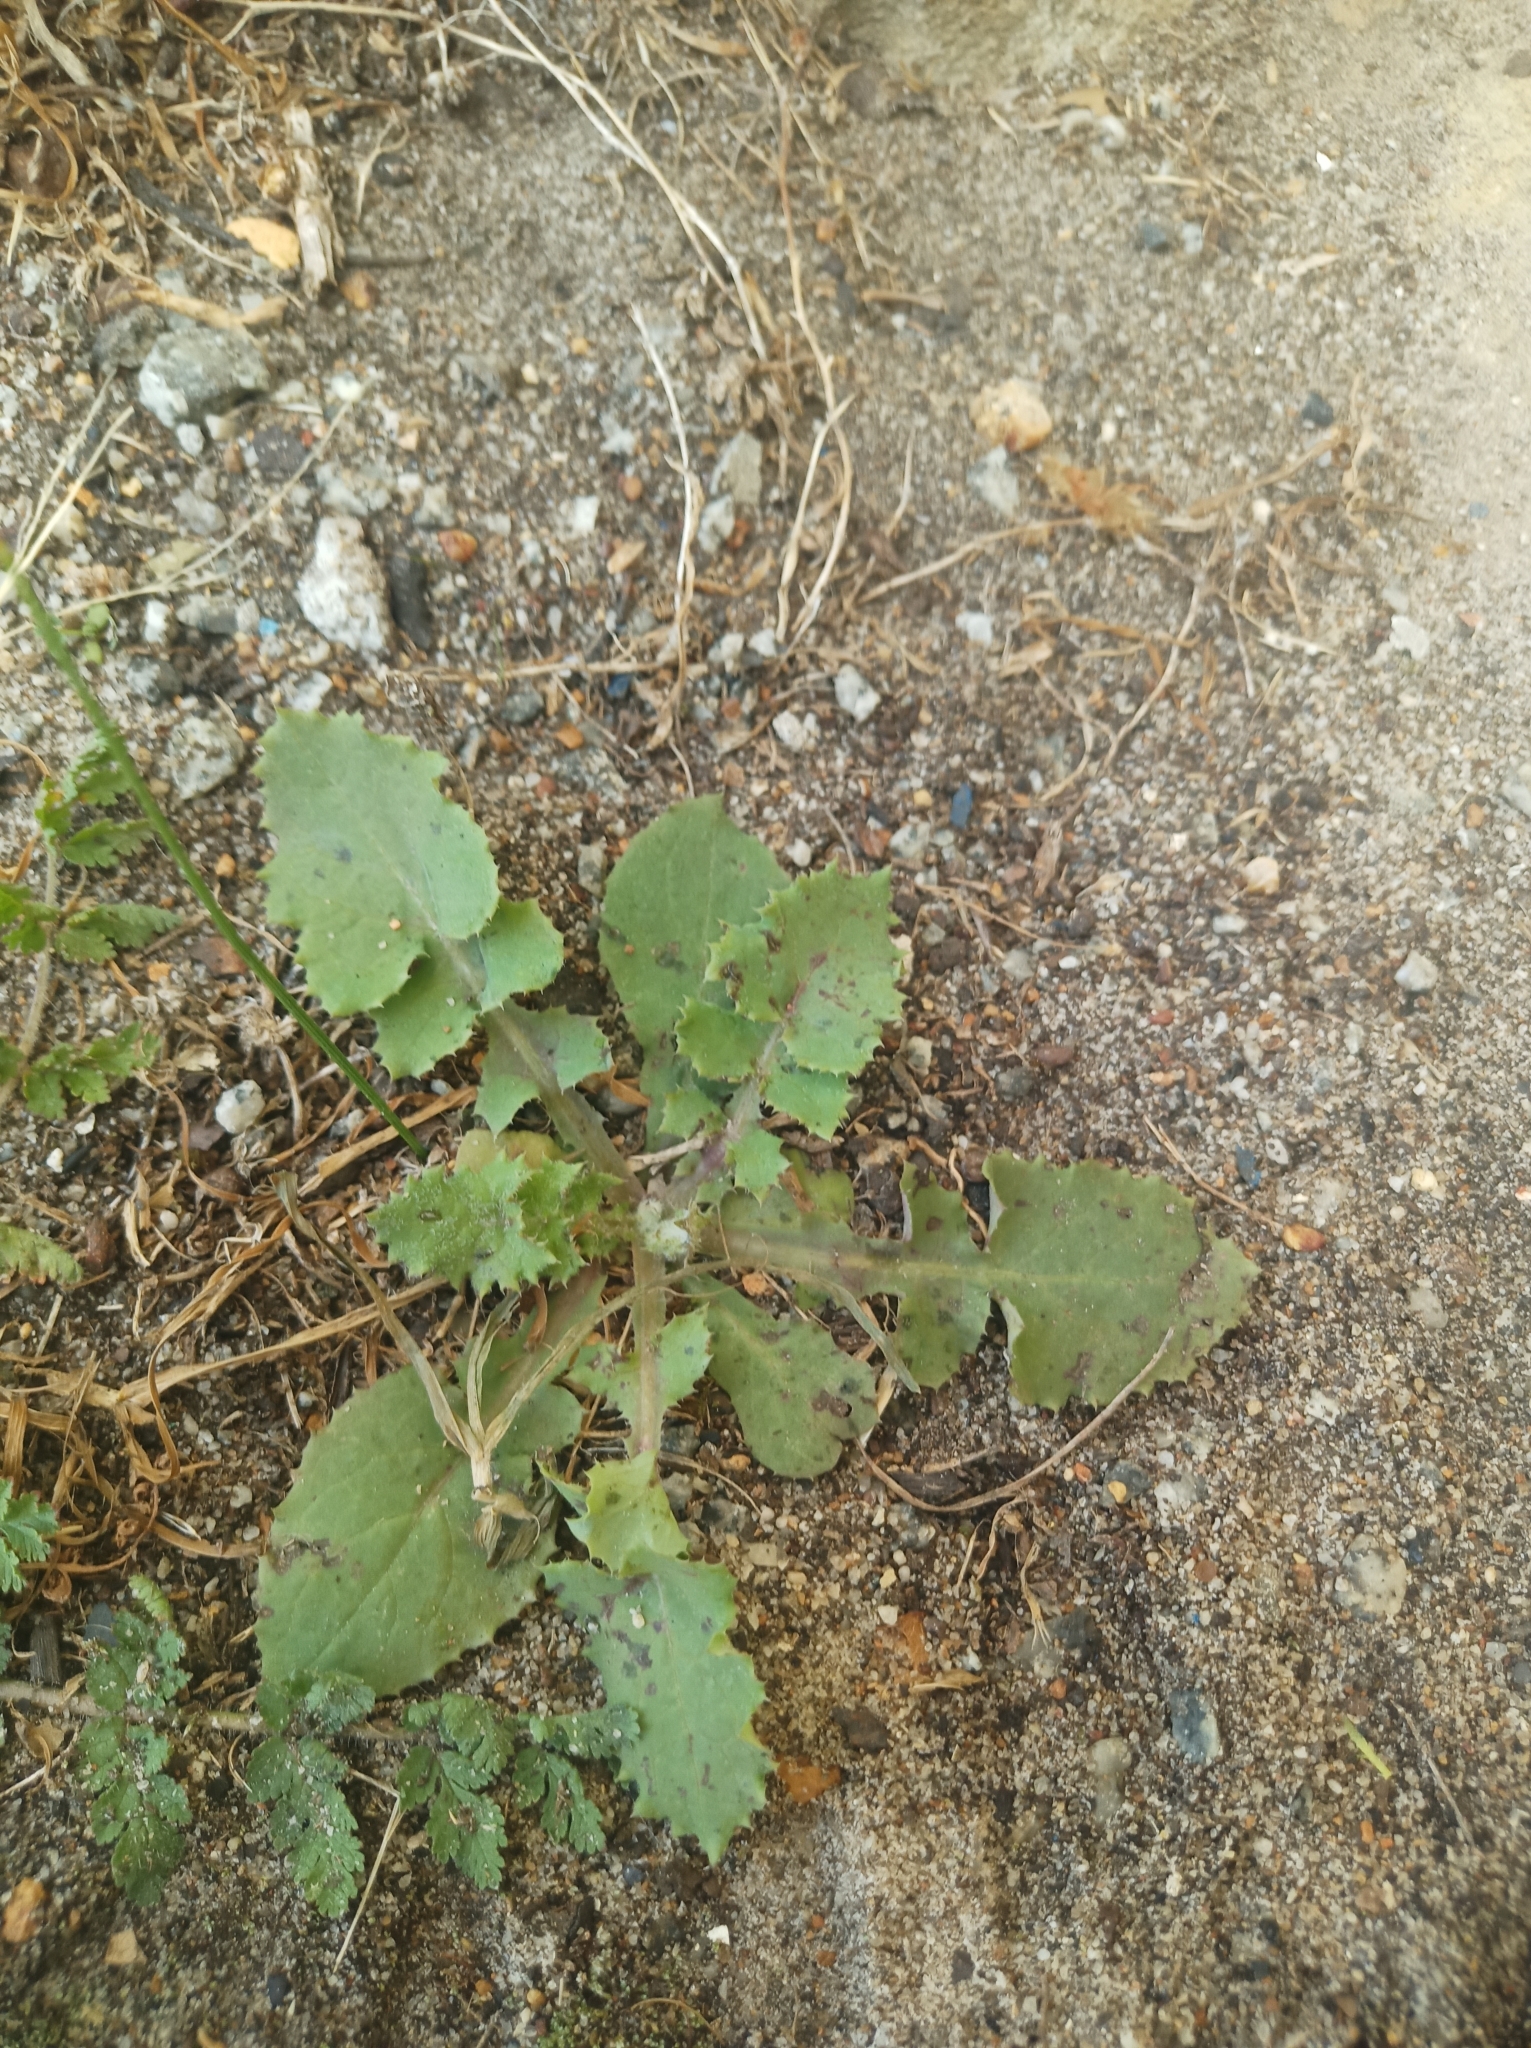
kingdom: Plantae
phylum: Tracheophyta
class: Magnoliopsida
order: Asterales
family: Asteraceae
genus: Sonchus
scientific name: Sonchus oleraceus
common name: Common sowthistle
